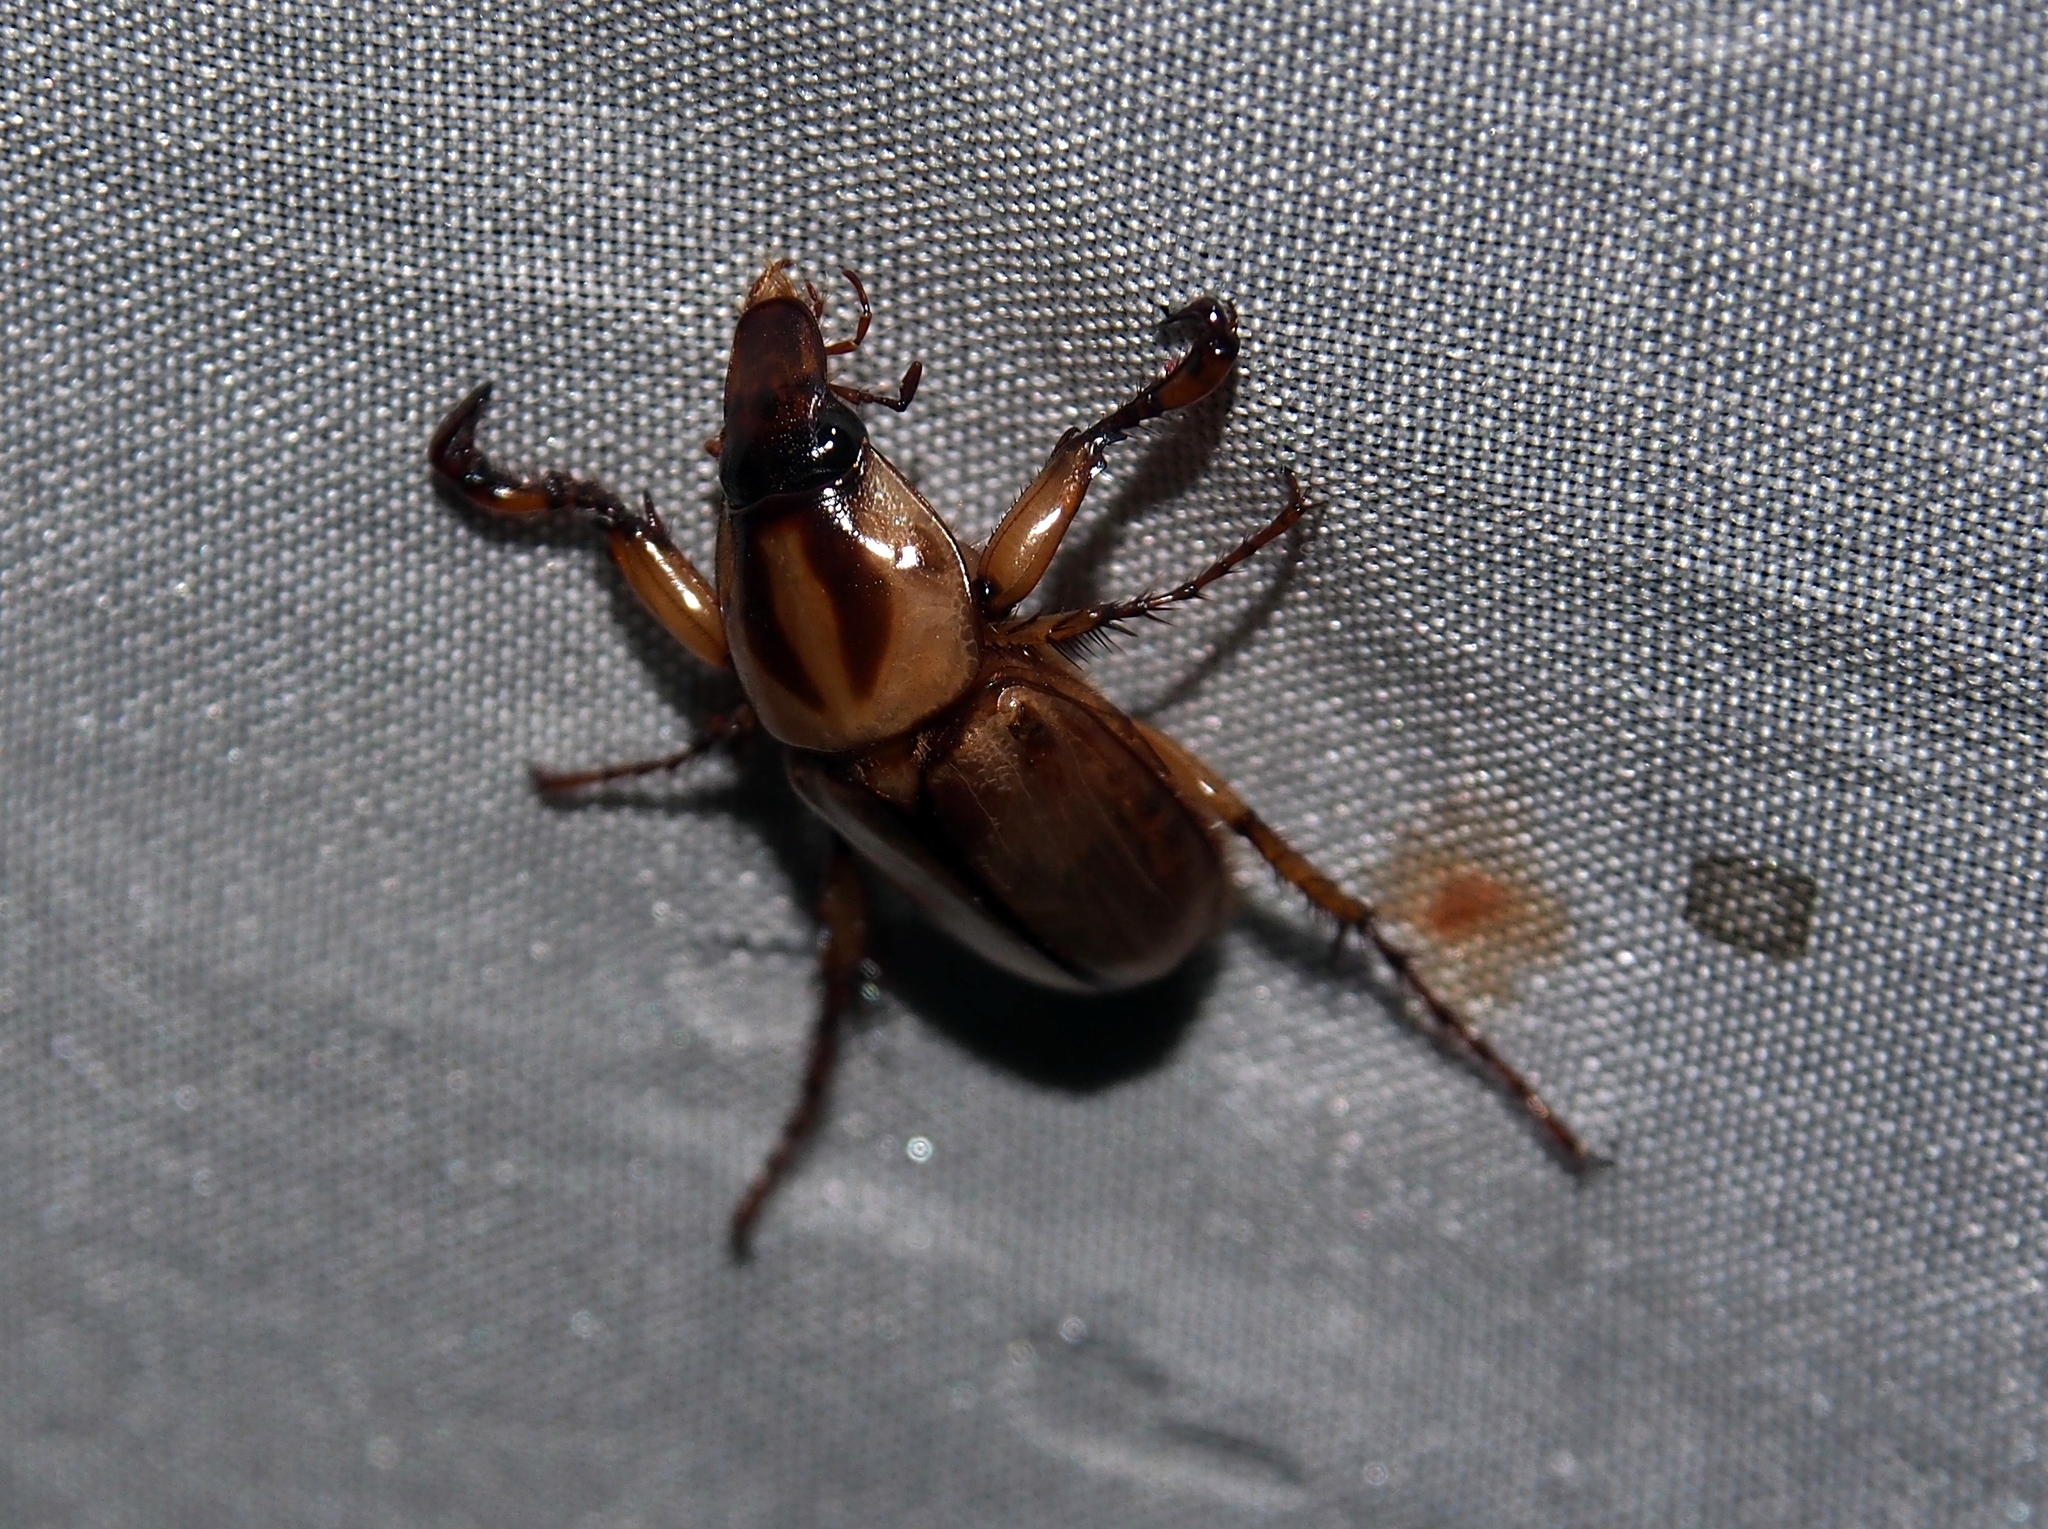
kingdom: Animalia
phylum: Arthropoda
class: Insecta
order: Coleoptera
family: Scarabaeidae
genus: Cyclocephala
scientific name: Cyclocephala prolongata
